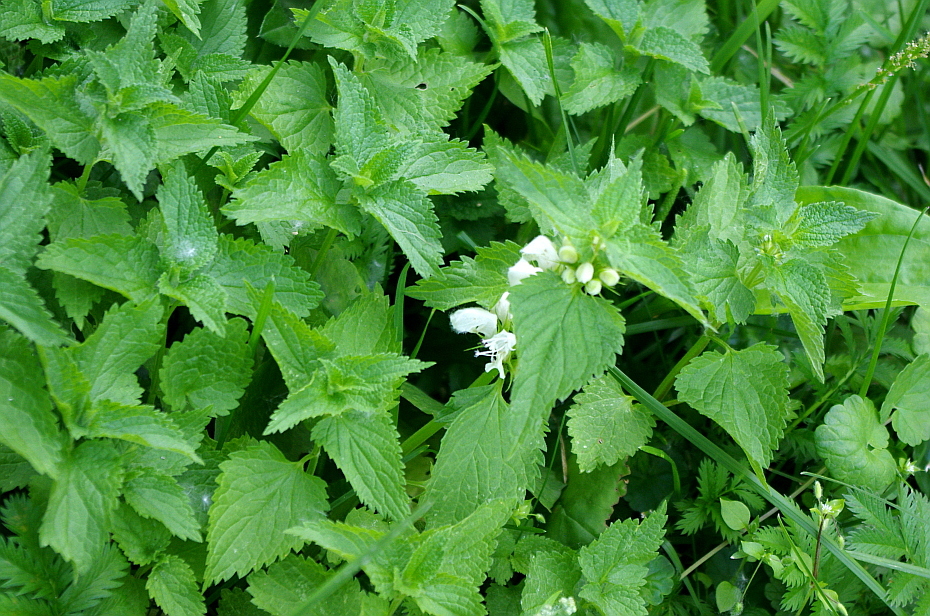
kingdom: Plantae
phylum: Tracheophyta
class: Magnoliopsida
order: Lamiales
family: Lamiaceae
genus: Lamium
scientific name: Lamium album
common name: White dead-nettle
